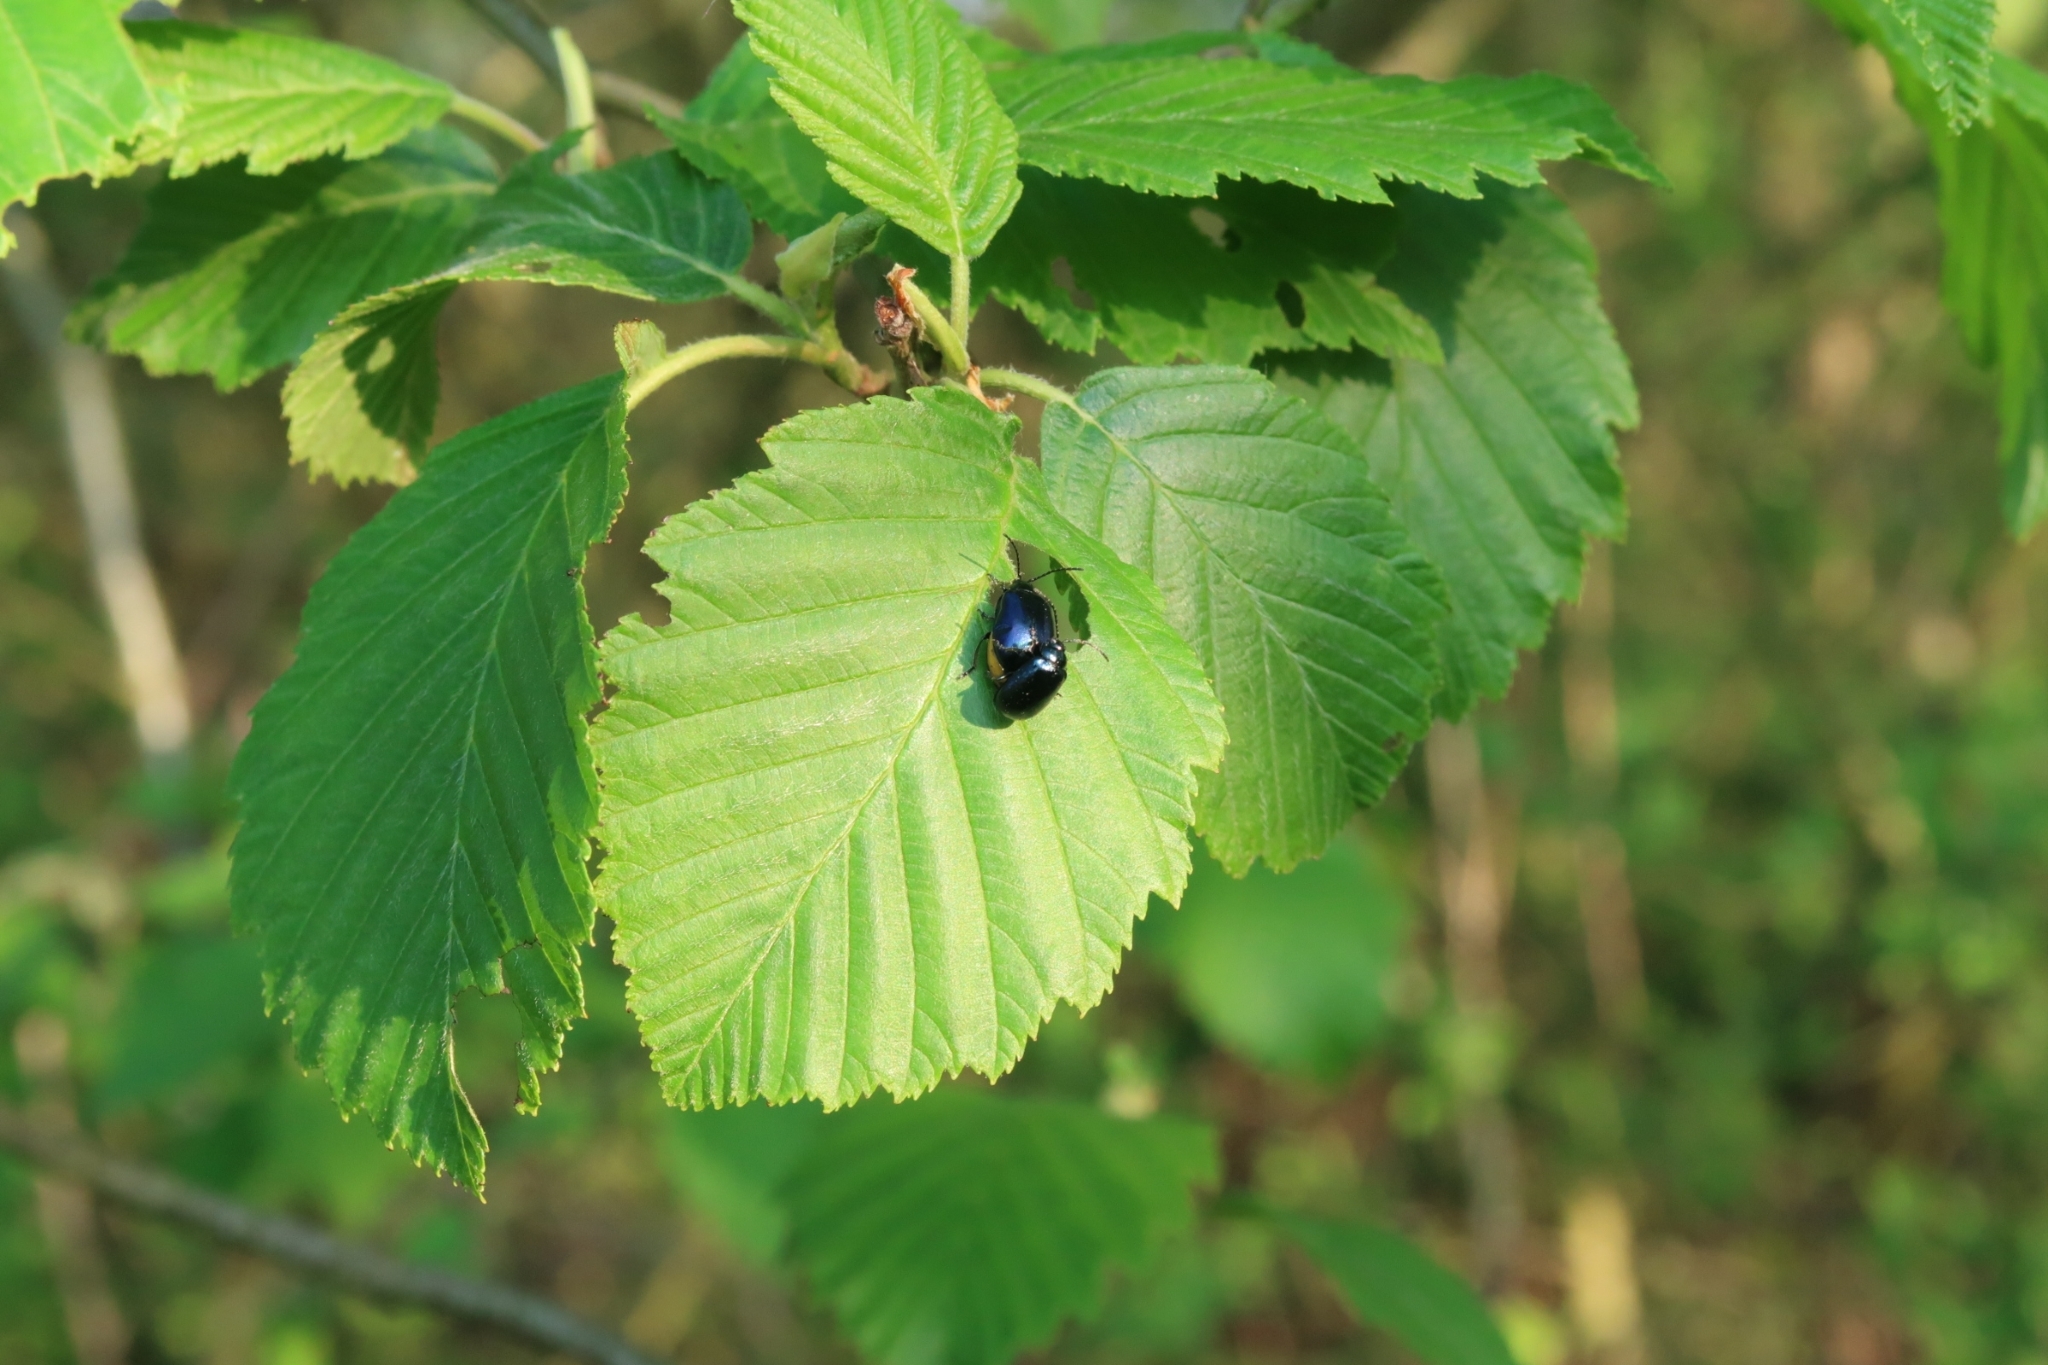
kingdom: Animalia
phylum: Arthropoda
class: Insecta
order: Coleoptera
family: Chrysomelidae
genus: Agelastica
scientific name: Agelastica alni
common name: Alder leaf beetle
